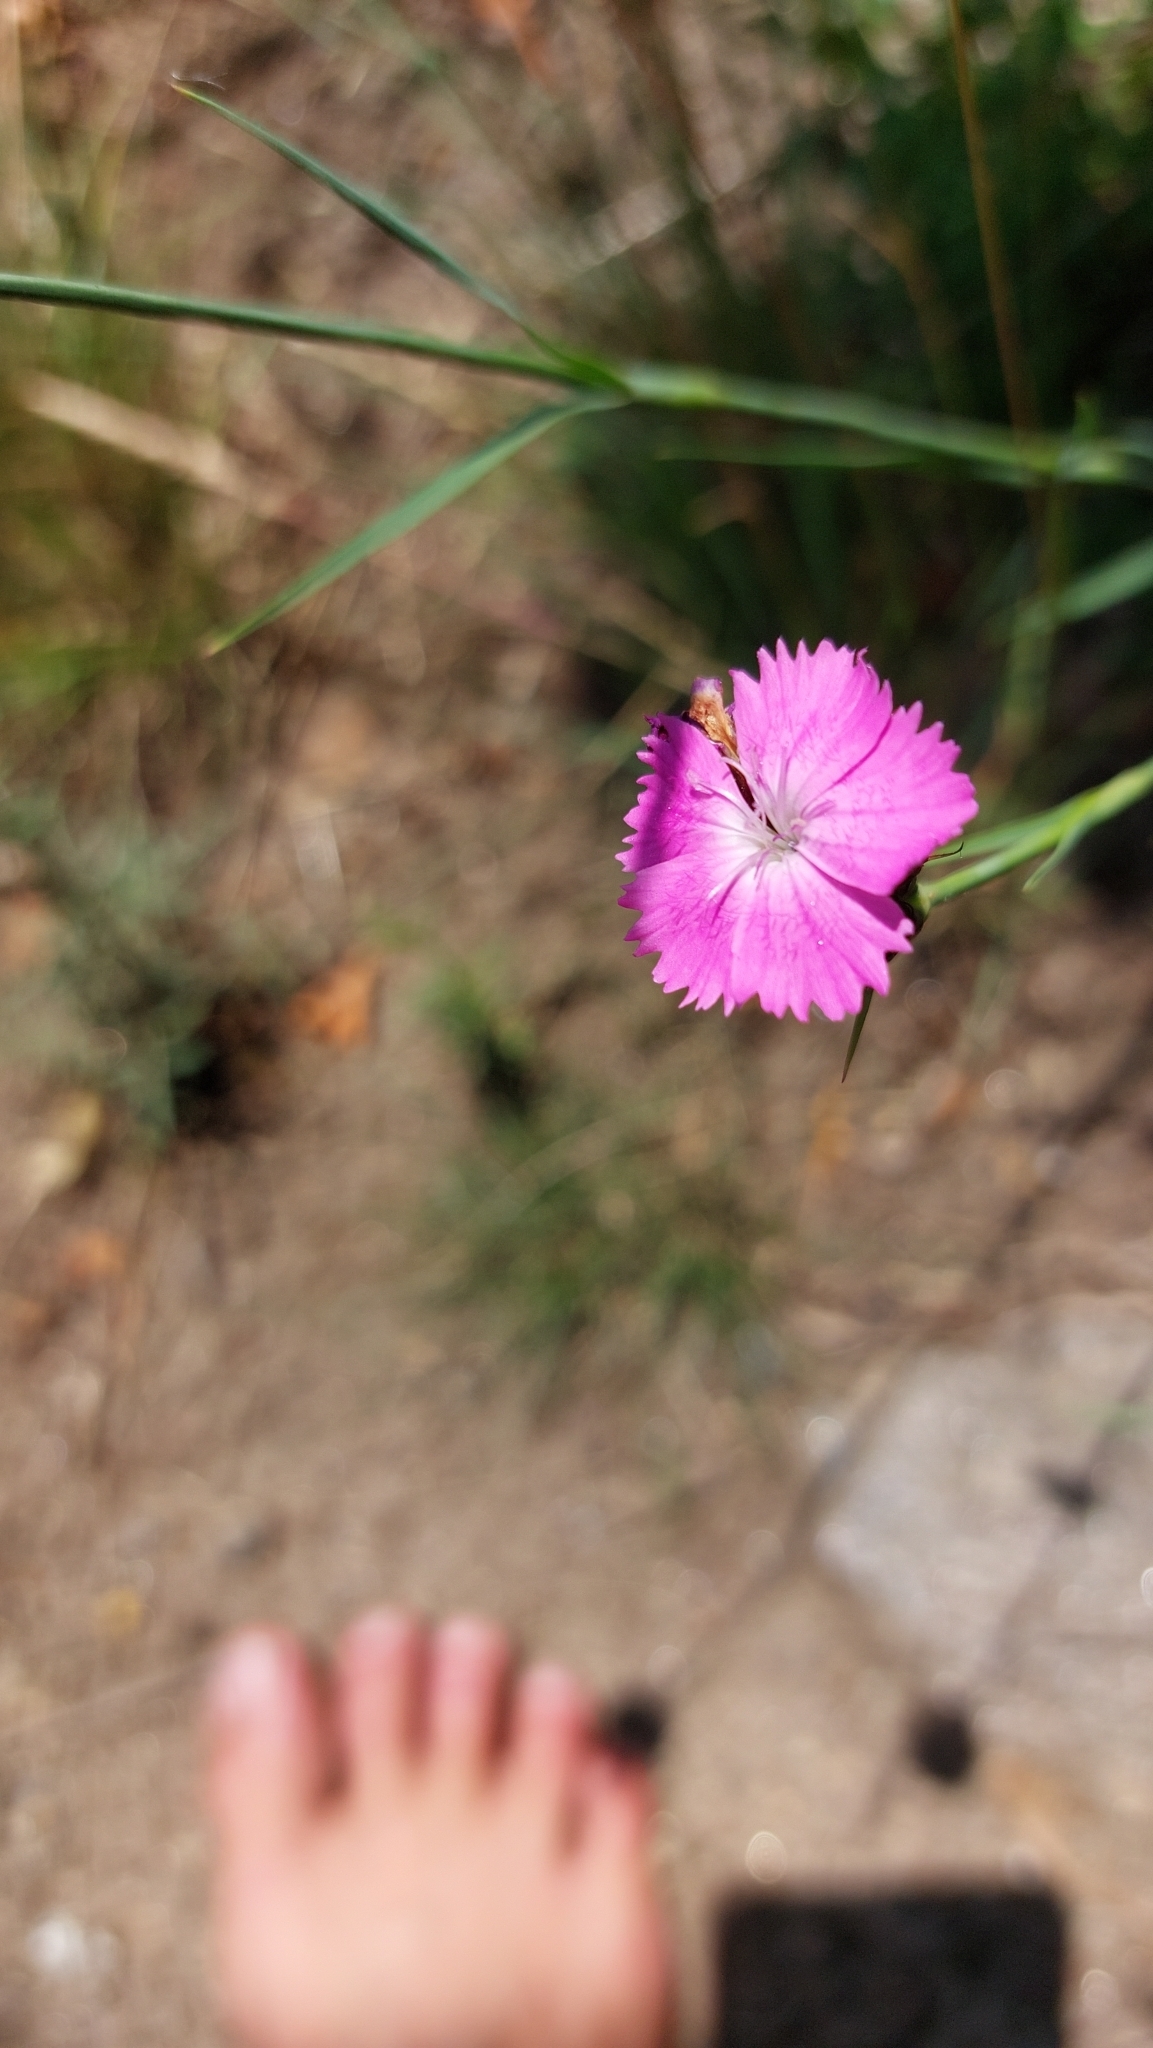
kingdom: Plantae
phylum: Tracheophyta
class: Magnoliopsida
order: Caryophyllales
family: Caryophyllaceae
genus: Dianthus
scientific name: Dianthus carthusianorum
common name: Carthusian pink
